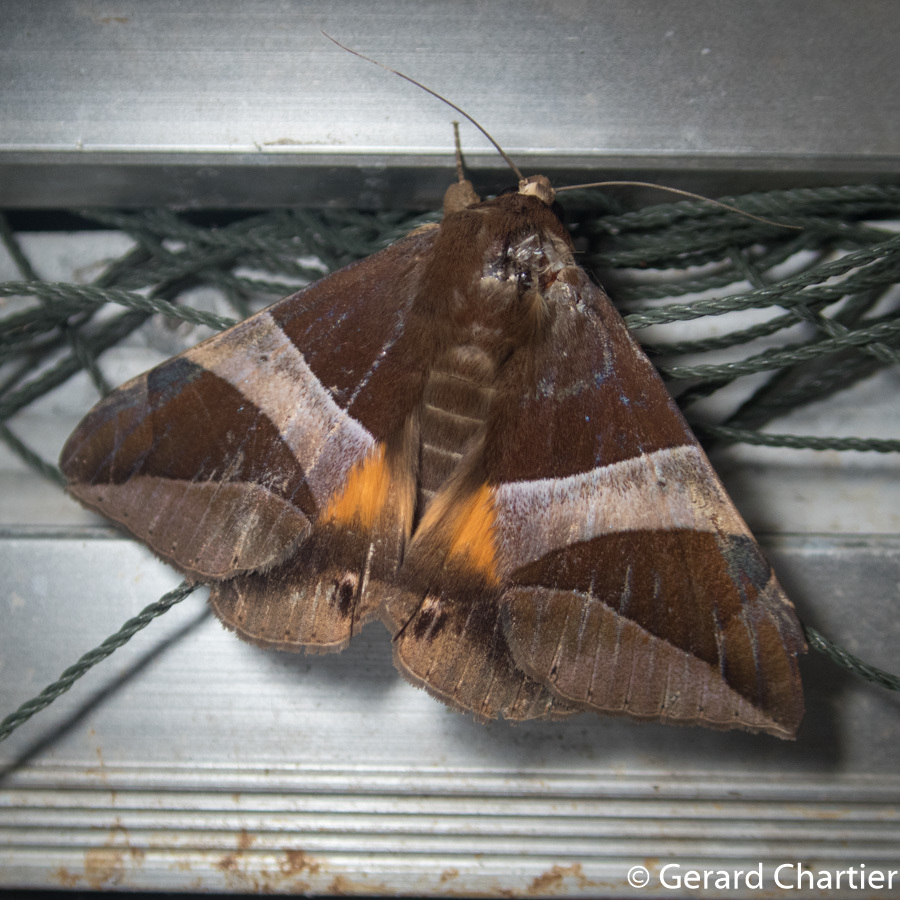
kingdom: Animalia
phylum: Arthropoda
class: Insecta
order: Lepidoptera
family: Erebidae
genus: Bastilla
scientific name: Bastilla fulvotaenia
